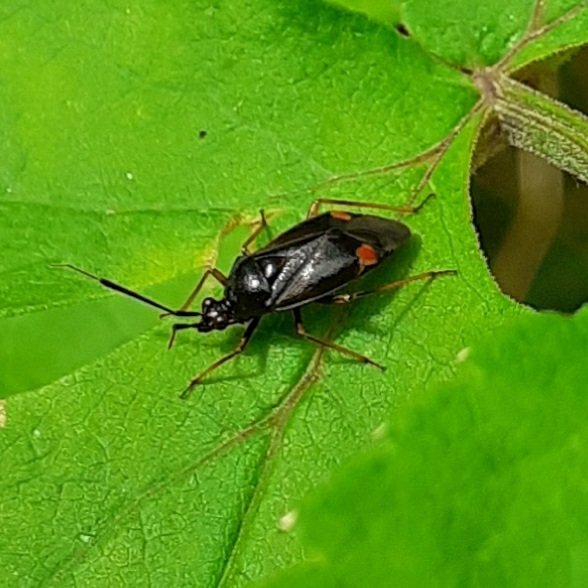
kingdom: Animalia
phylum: Arthropoda
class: Insecta
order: Hemiptera
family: Miridae
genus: Deraeocoris
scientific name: Deraeocoris ruber
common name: Plant bug
